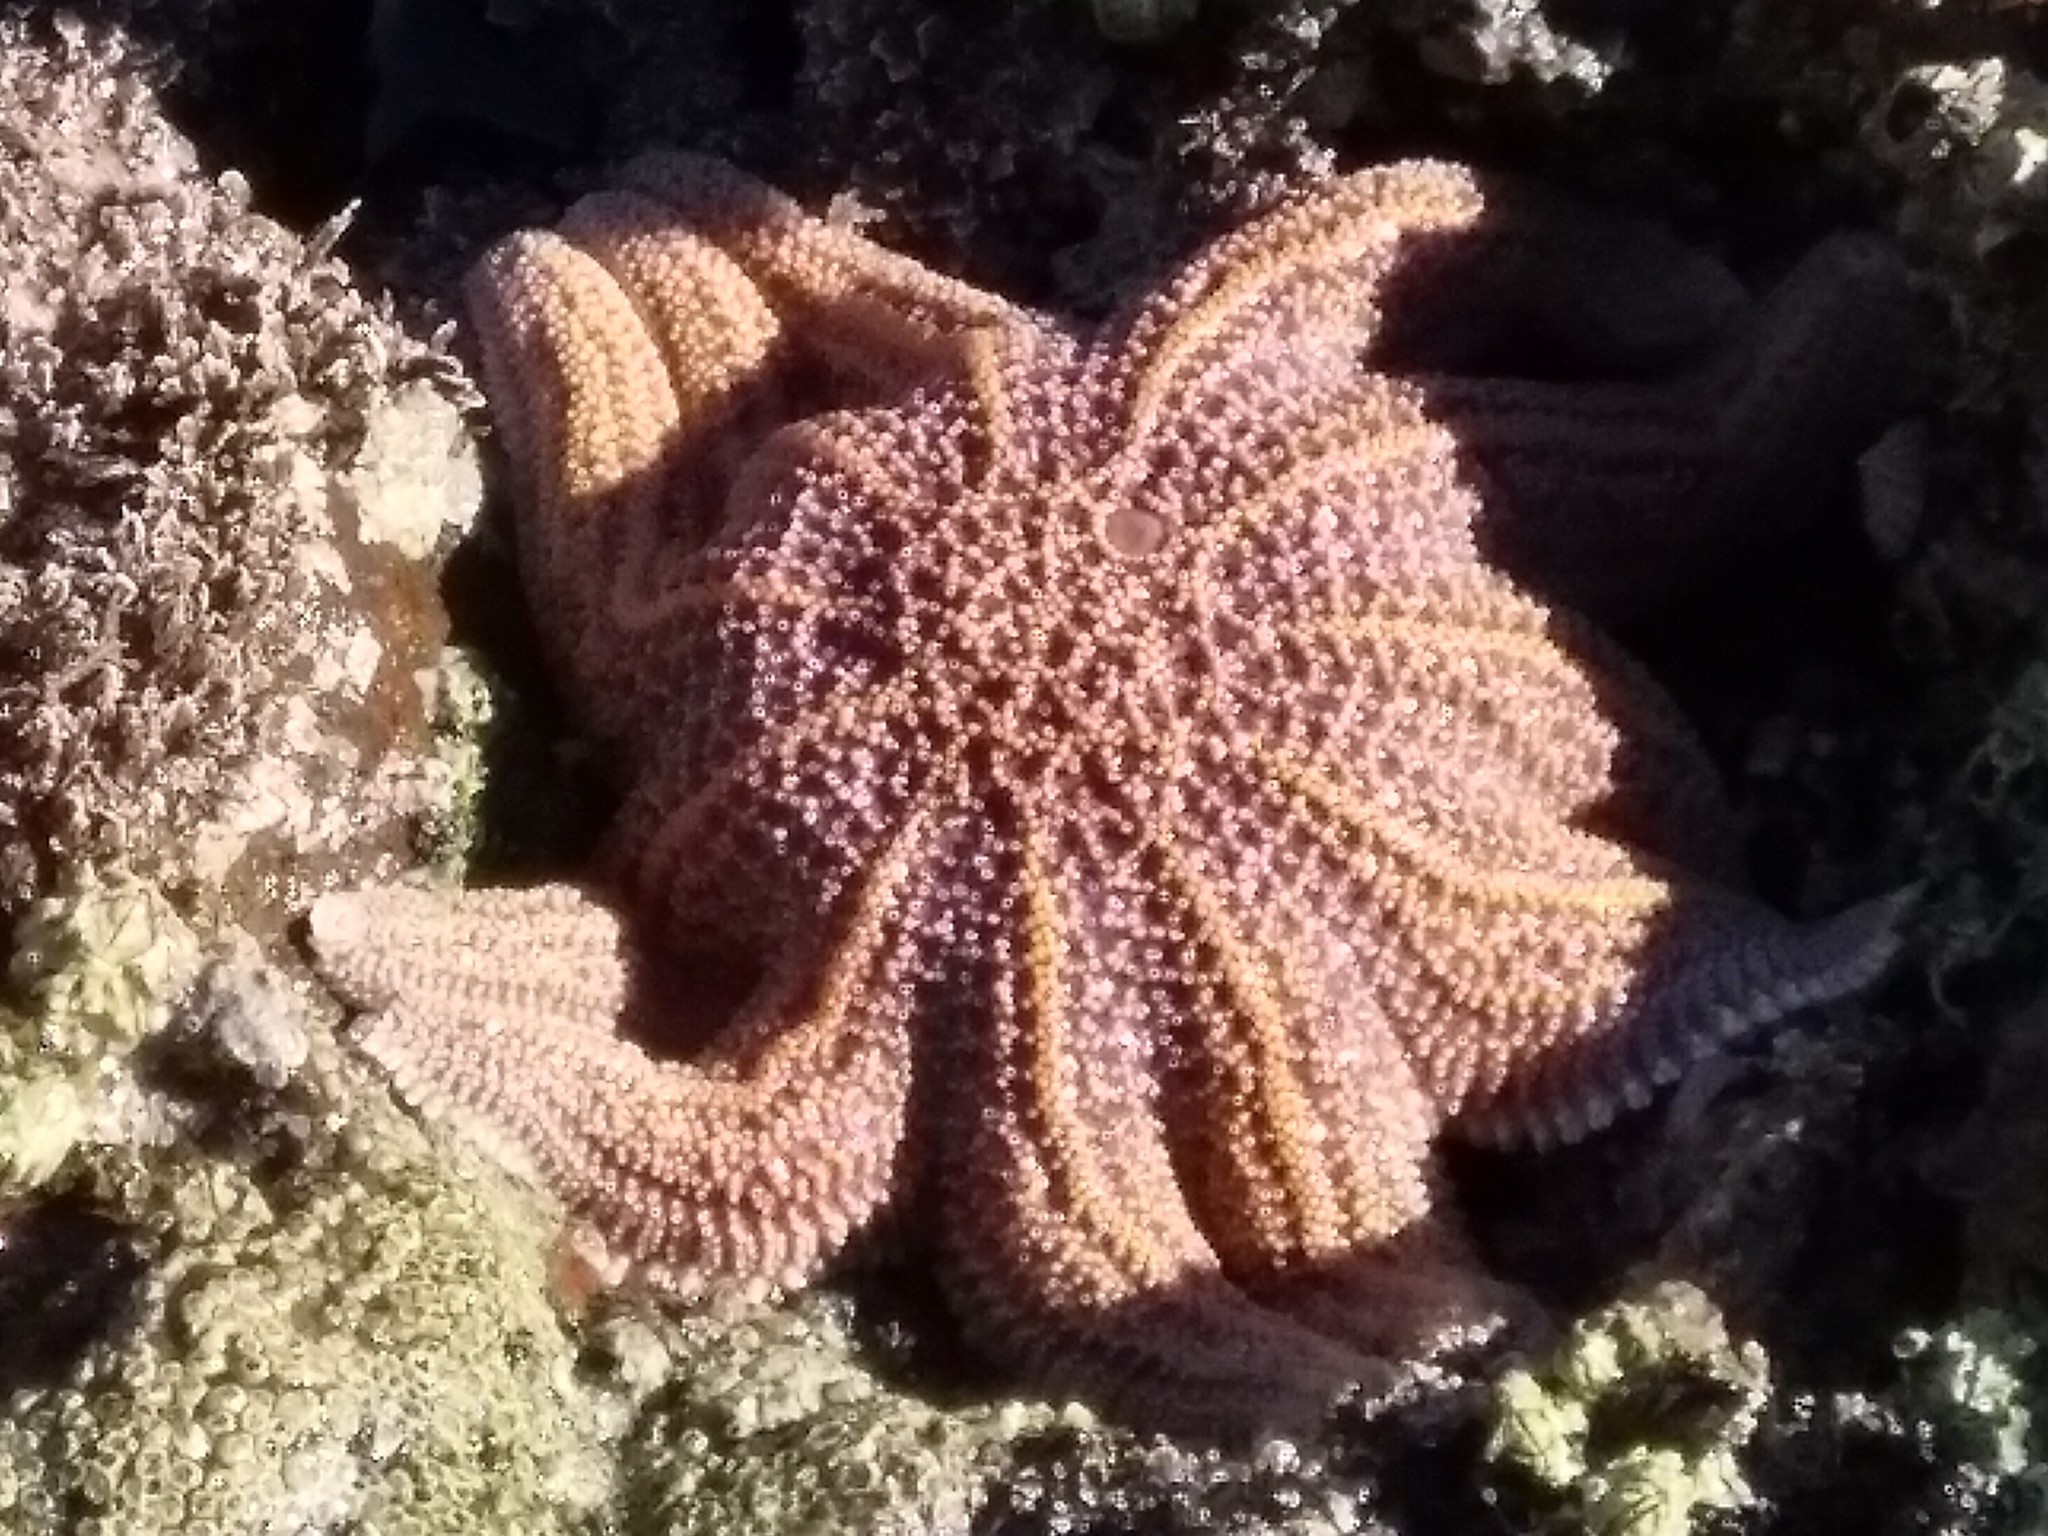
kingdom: Animalia
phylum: Echinodermata
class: Asteroidea
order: Forcipulatida
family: Stichasteridae
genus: Stichaster
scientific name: Stichaster australis
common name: Reef starfish
